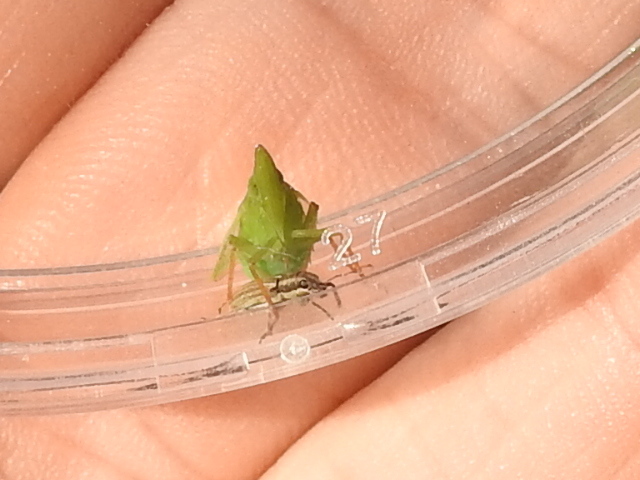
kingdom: Animalia
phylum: Arthropoda
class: Insecta
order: Hemiptera
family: Dictyopharidae
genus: Rhynchomitra
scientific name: Rhynchomitra recurva
